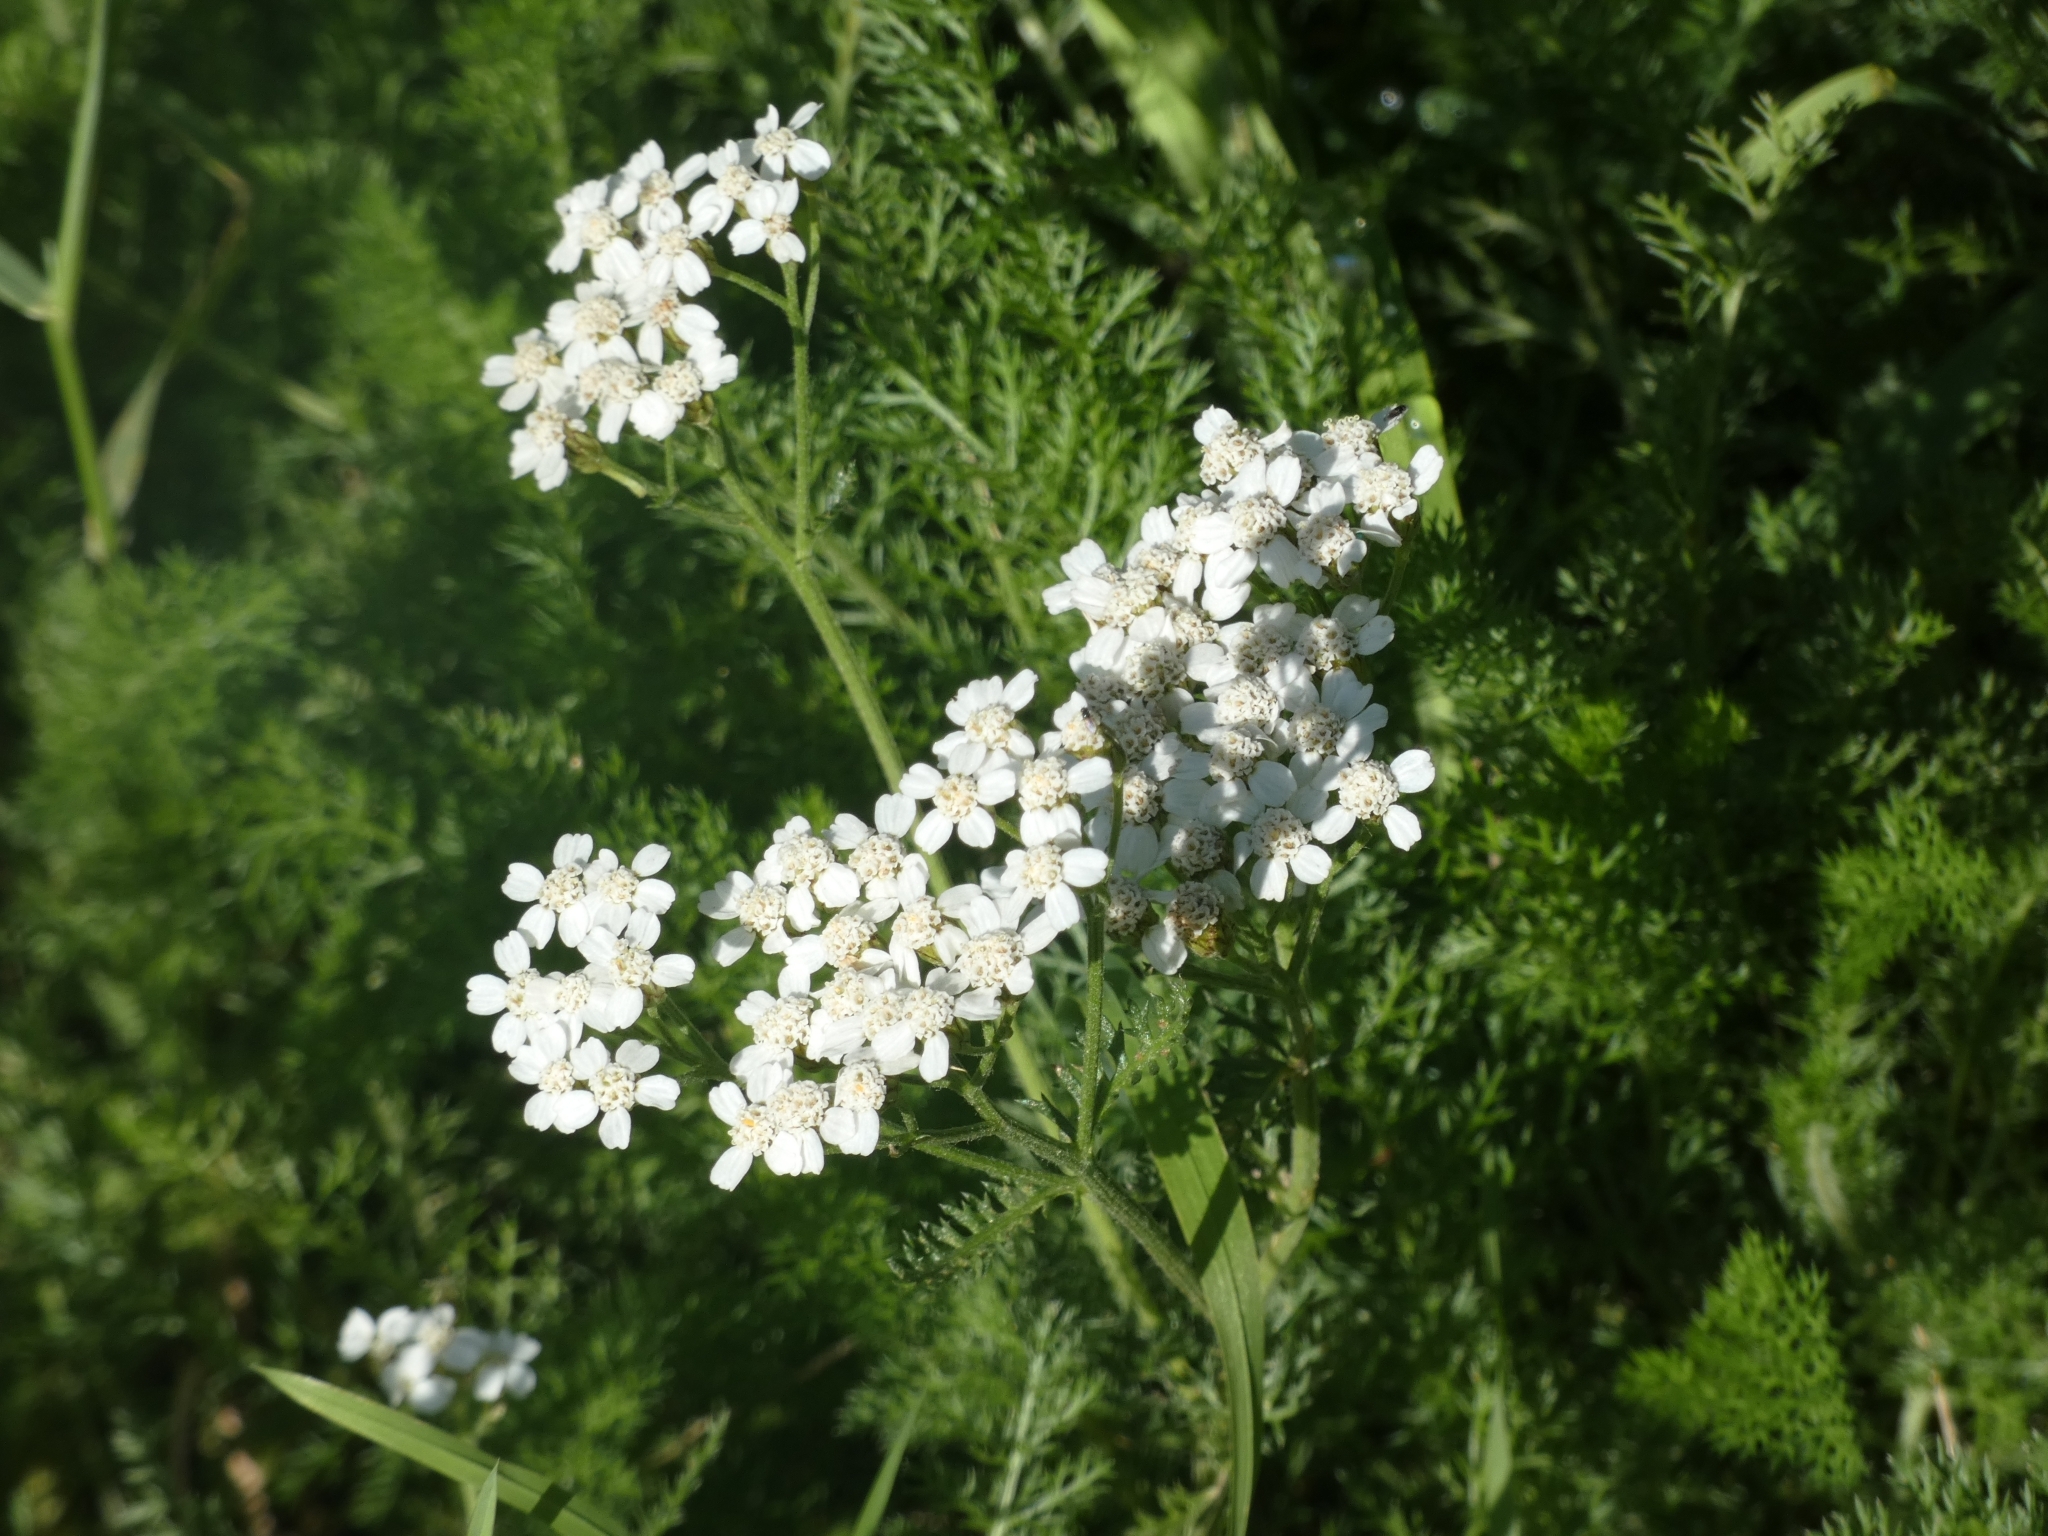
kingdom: Plantae
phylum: Tracheophyta
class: Magnoliopsida
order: Asterales
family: Asteraceae
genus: Achillea
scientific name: Achillea millefolium
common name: Yarrow
